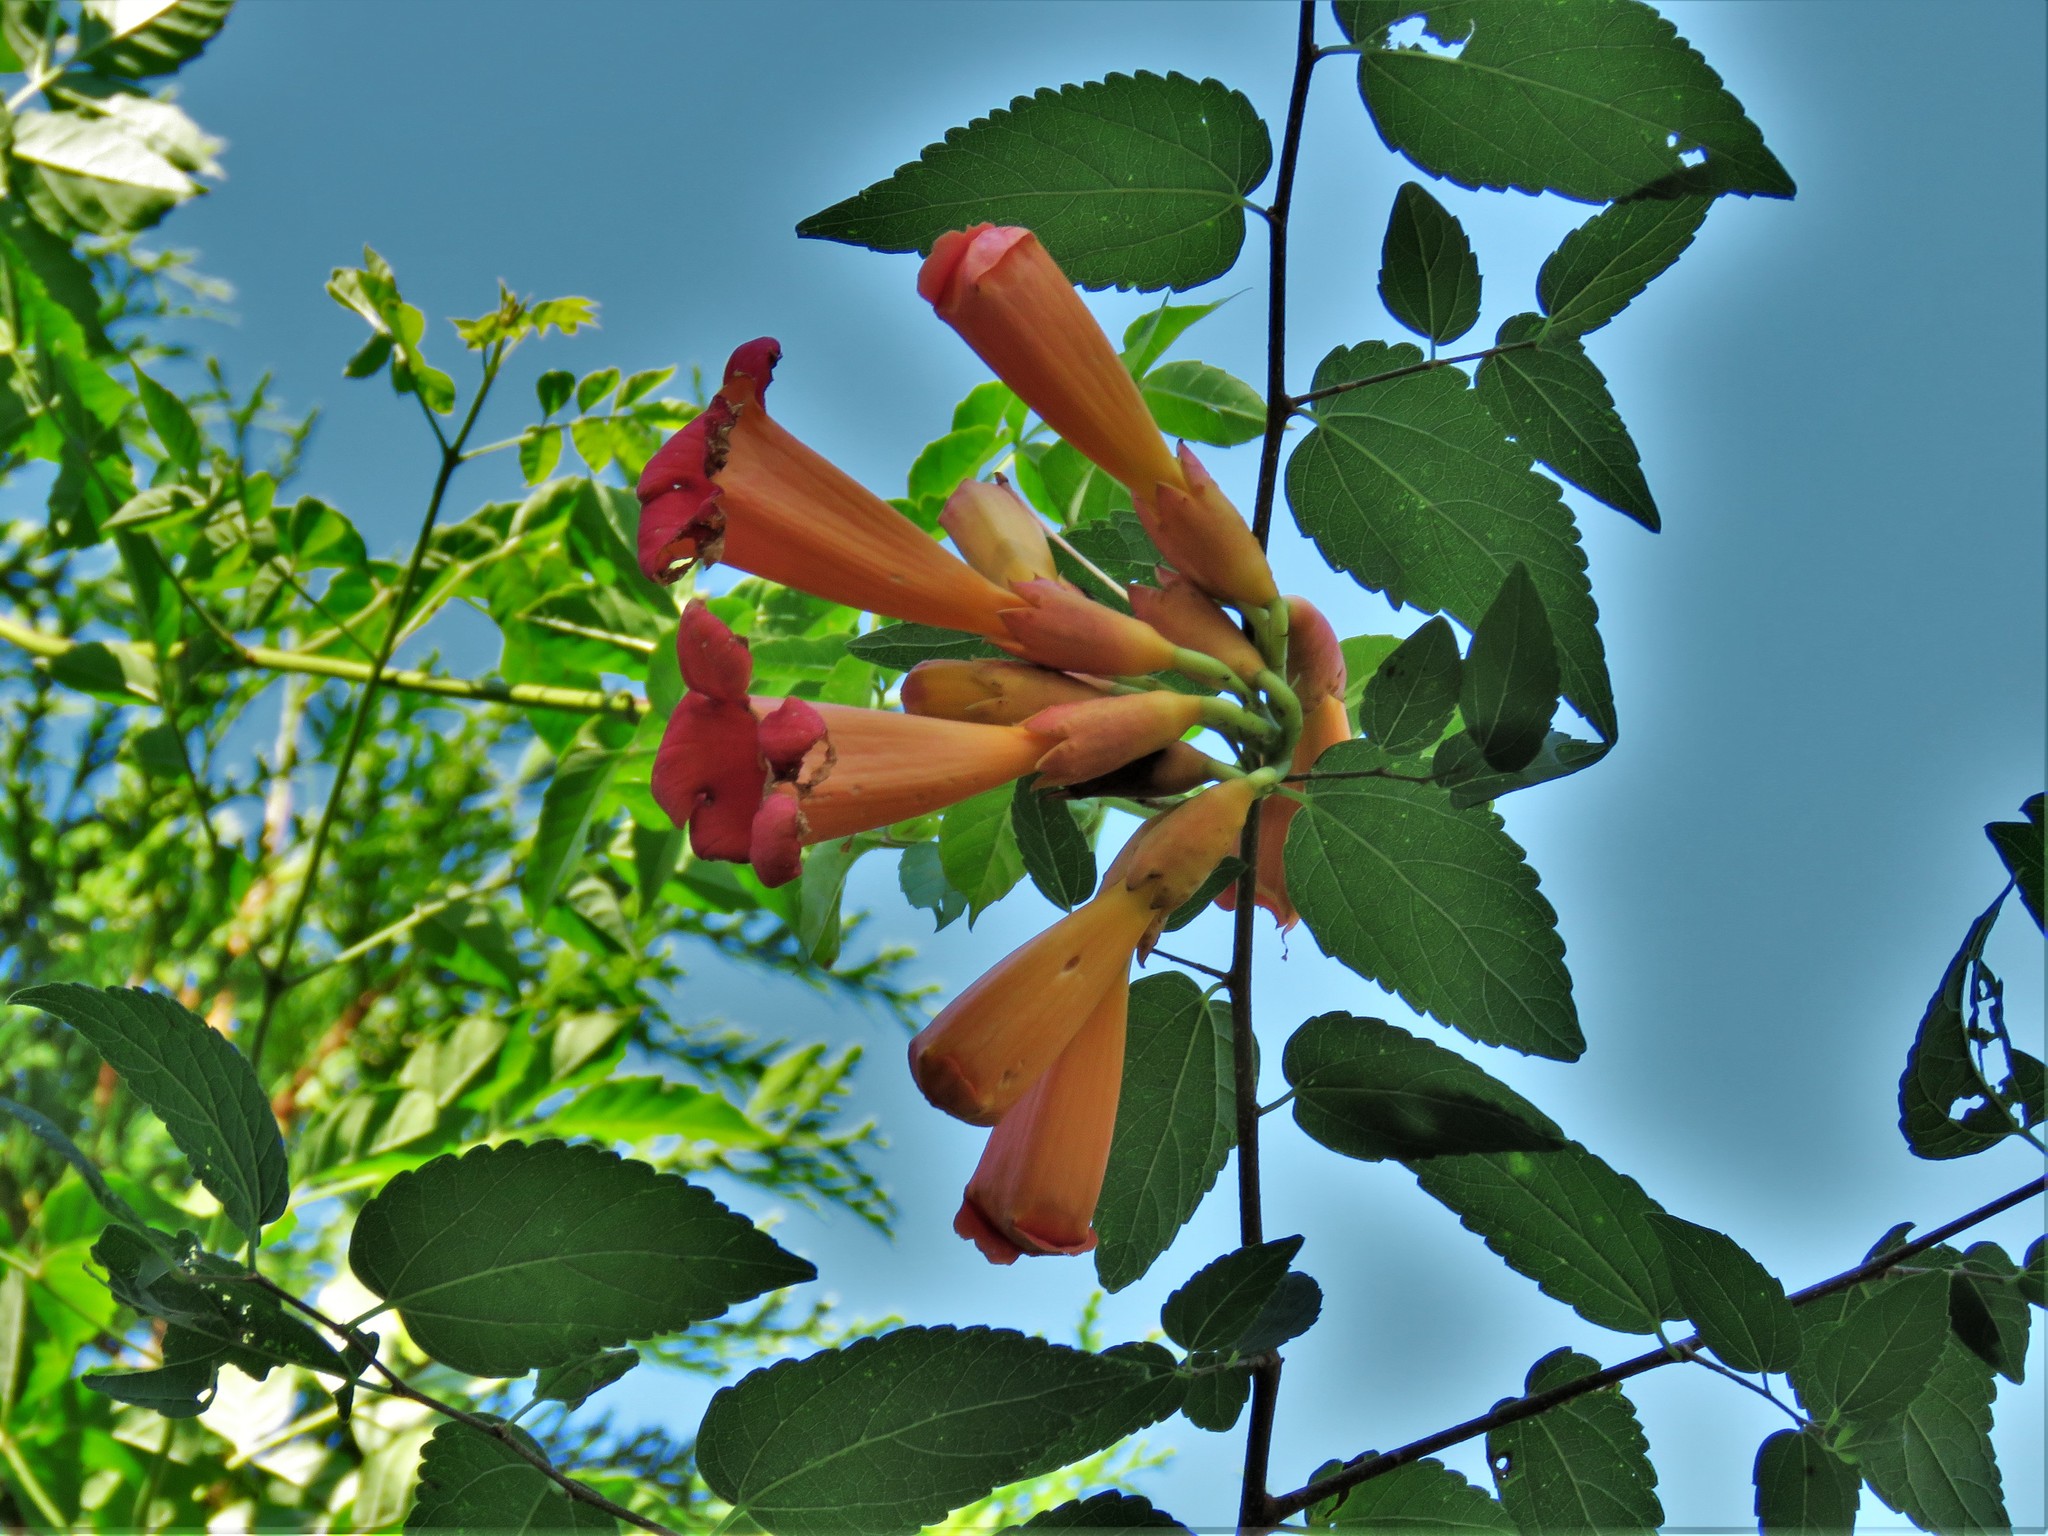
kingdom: Plantae
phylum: Tracheophyta
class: Magnoliopsida
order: Lamiales
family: Bignoniaceae
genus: Campsis
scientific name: Campsis radicans
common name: Trumpet-creeper
